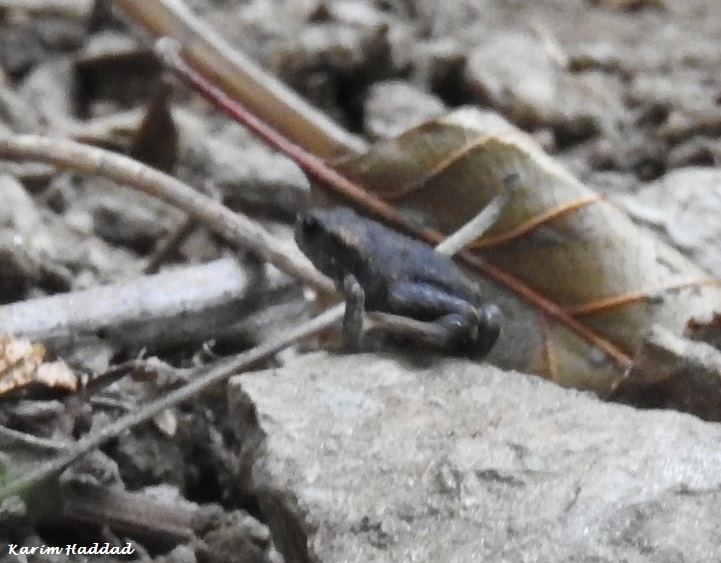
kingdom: Animalia
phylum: Chordata
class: Amphibia
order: Anura
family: Bufonidae
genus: Bufo
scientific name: Bufo spinosus
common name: Western common toad
